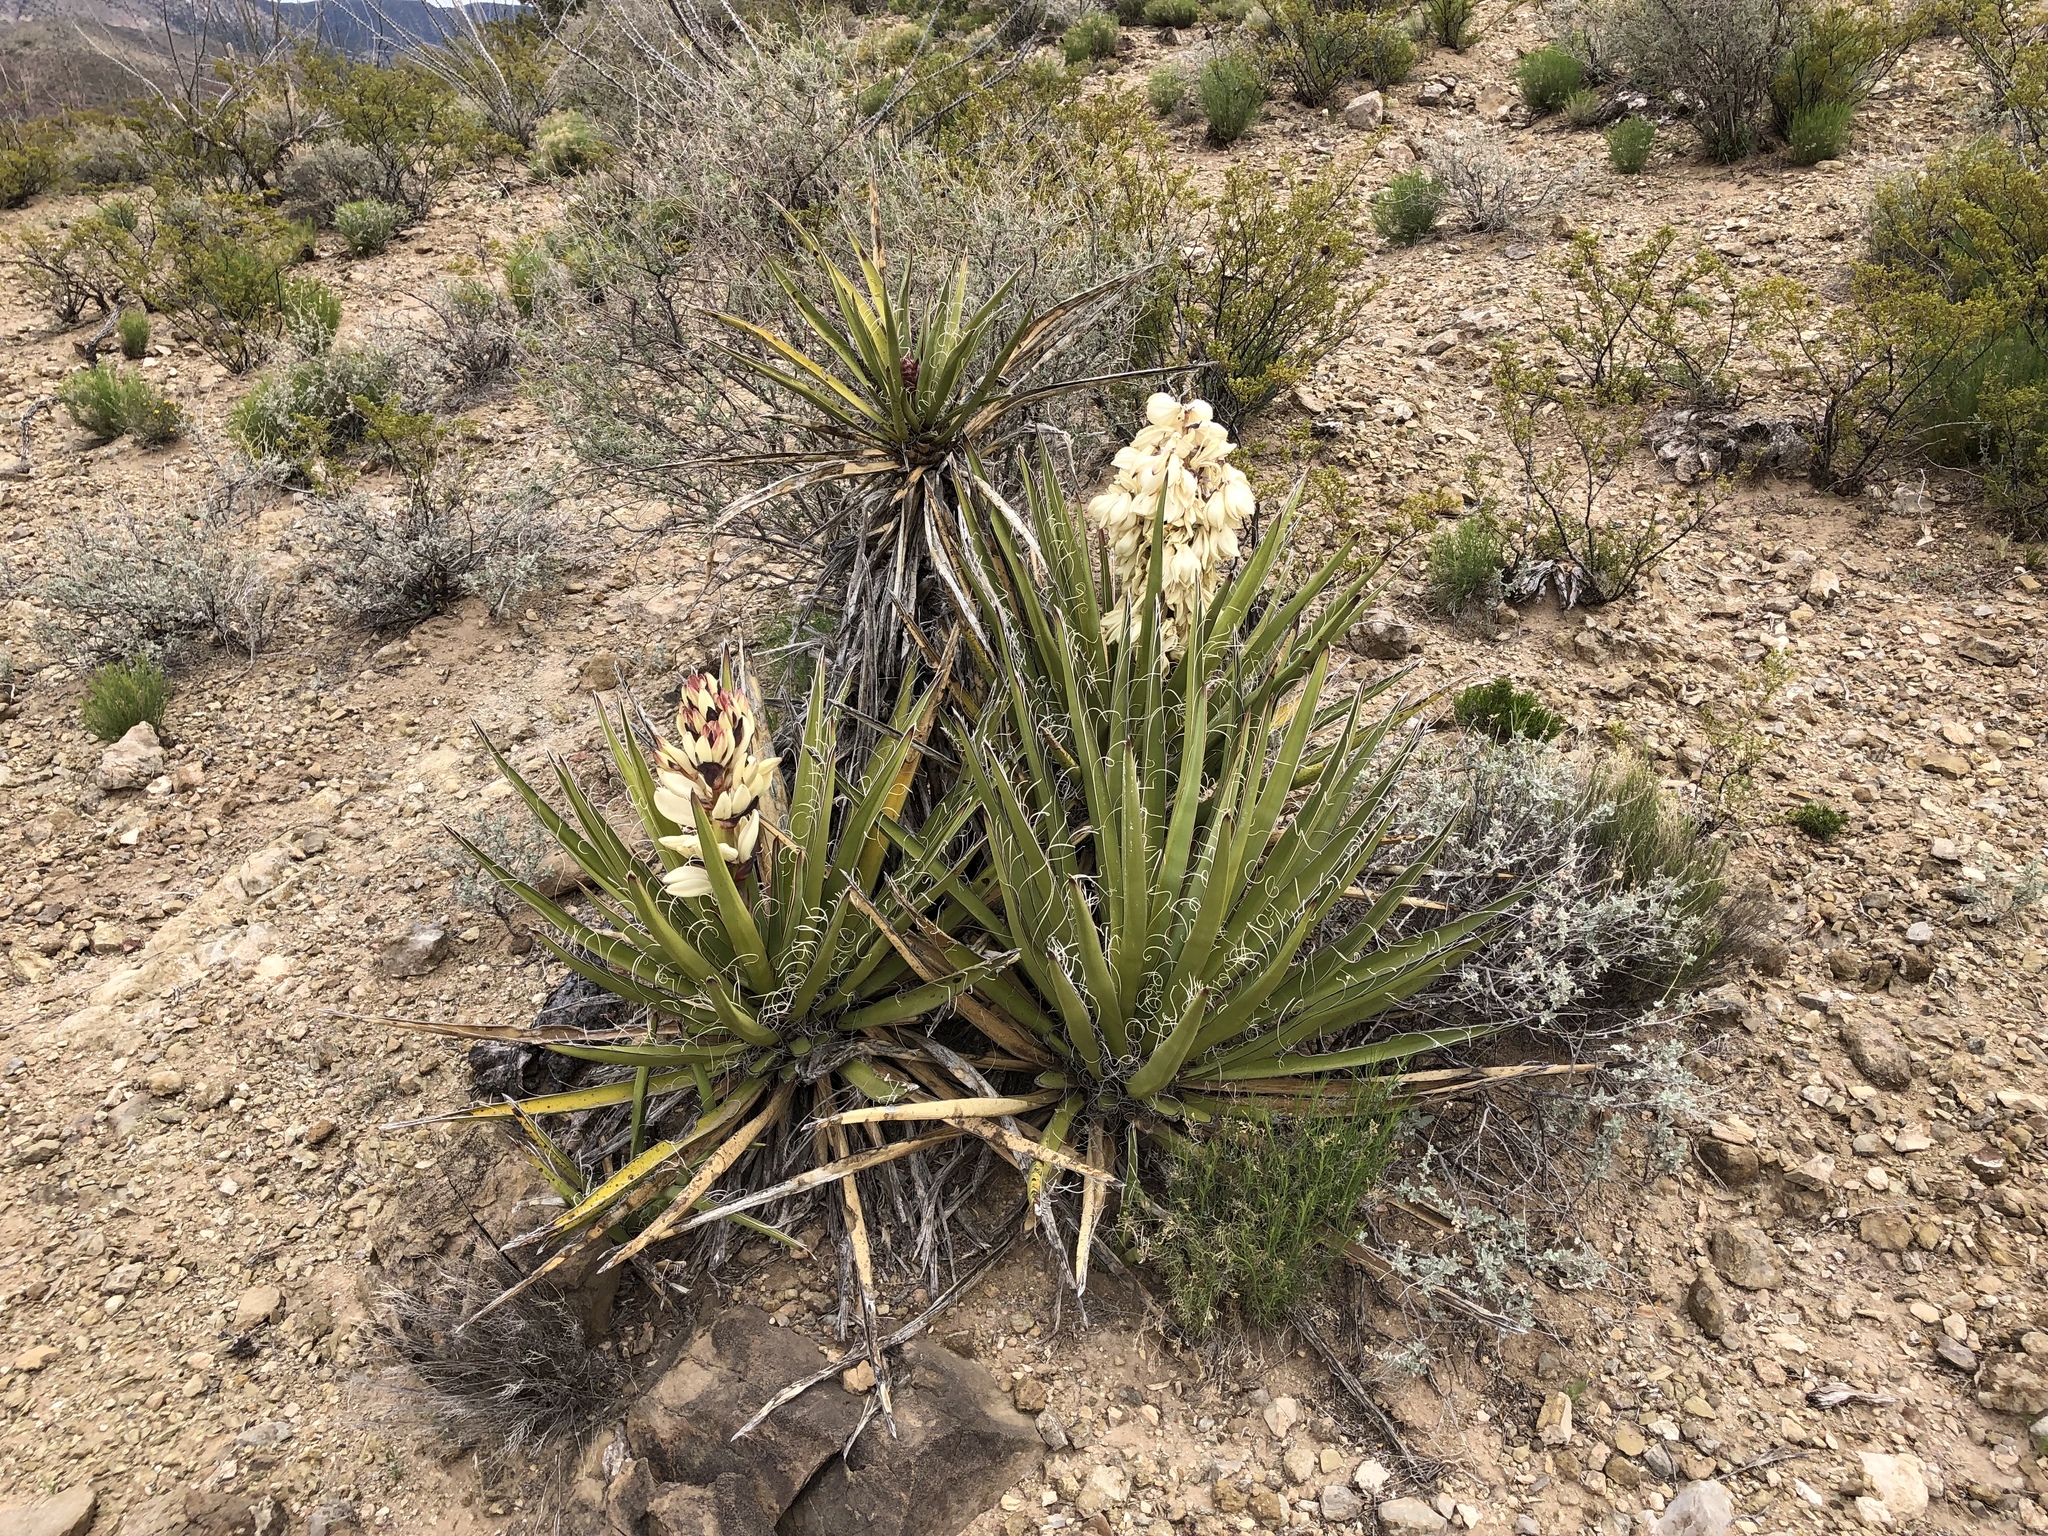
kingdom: Plantae
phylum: Tracheophyta
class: Liliopsida
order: Asparagales
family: Asparagaceae
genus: Yucca
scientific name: Yucca baccata
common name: Banana yucca
